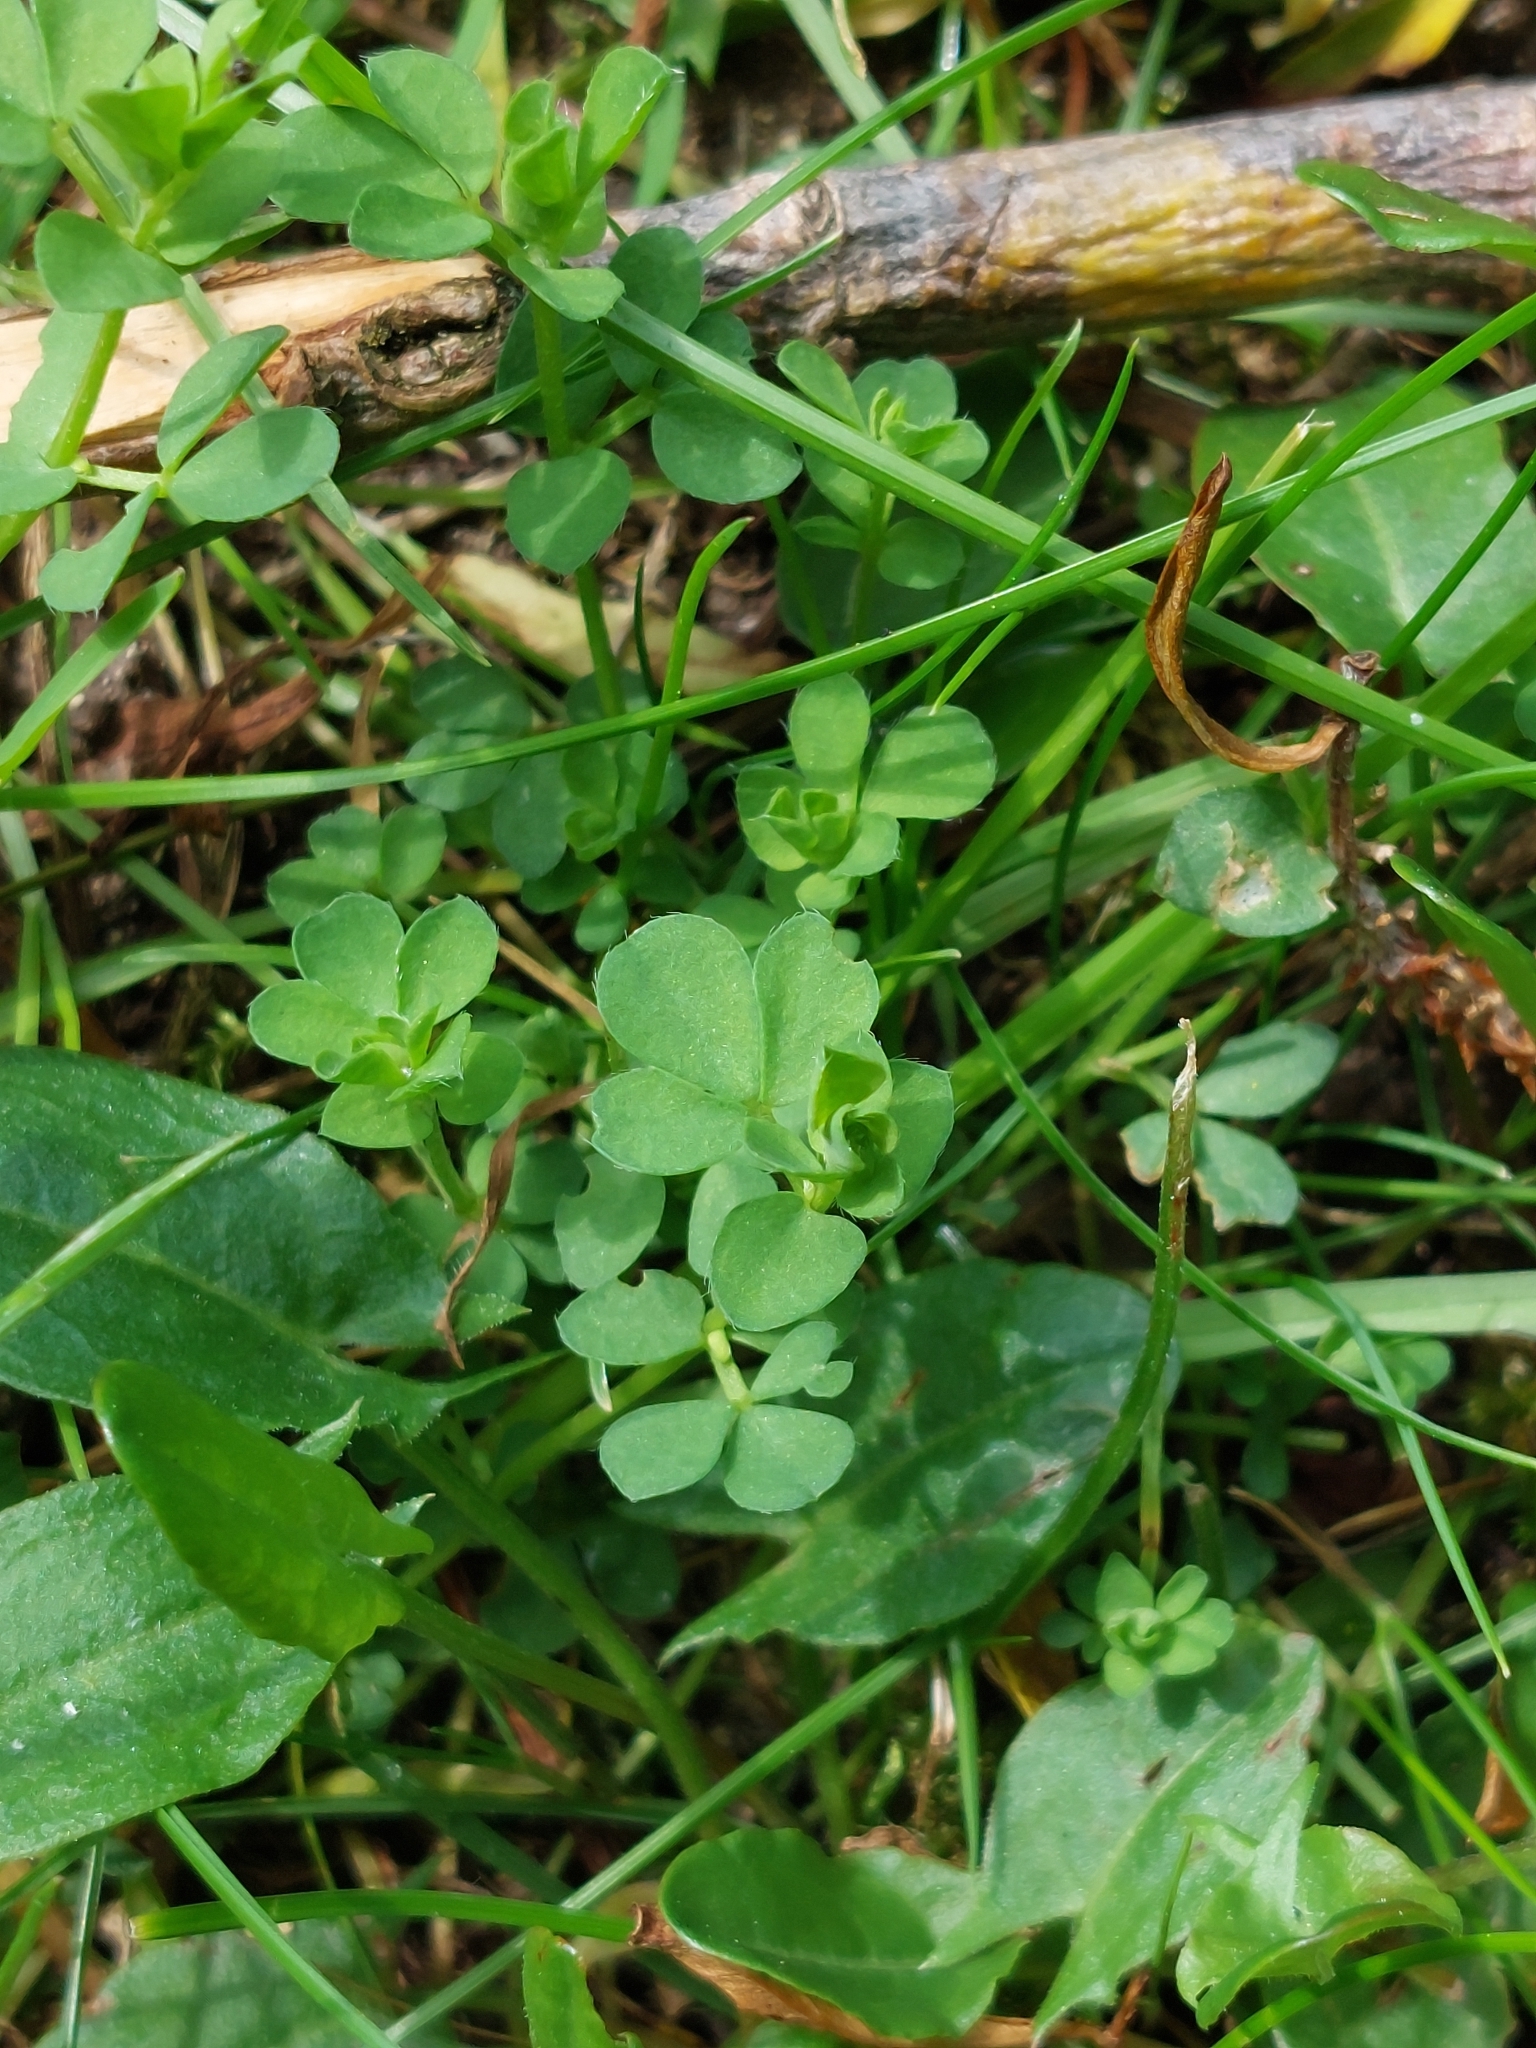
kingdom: Plantae
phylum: Tracheophyta
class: Magnoliopsida
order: Fabales
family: Fabaceae
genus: Lotus
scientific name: Lotus corniculatus
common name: Common bird's-foot-trefoil
